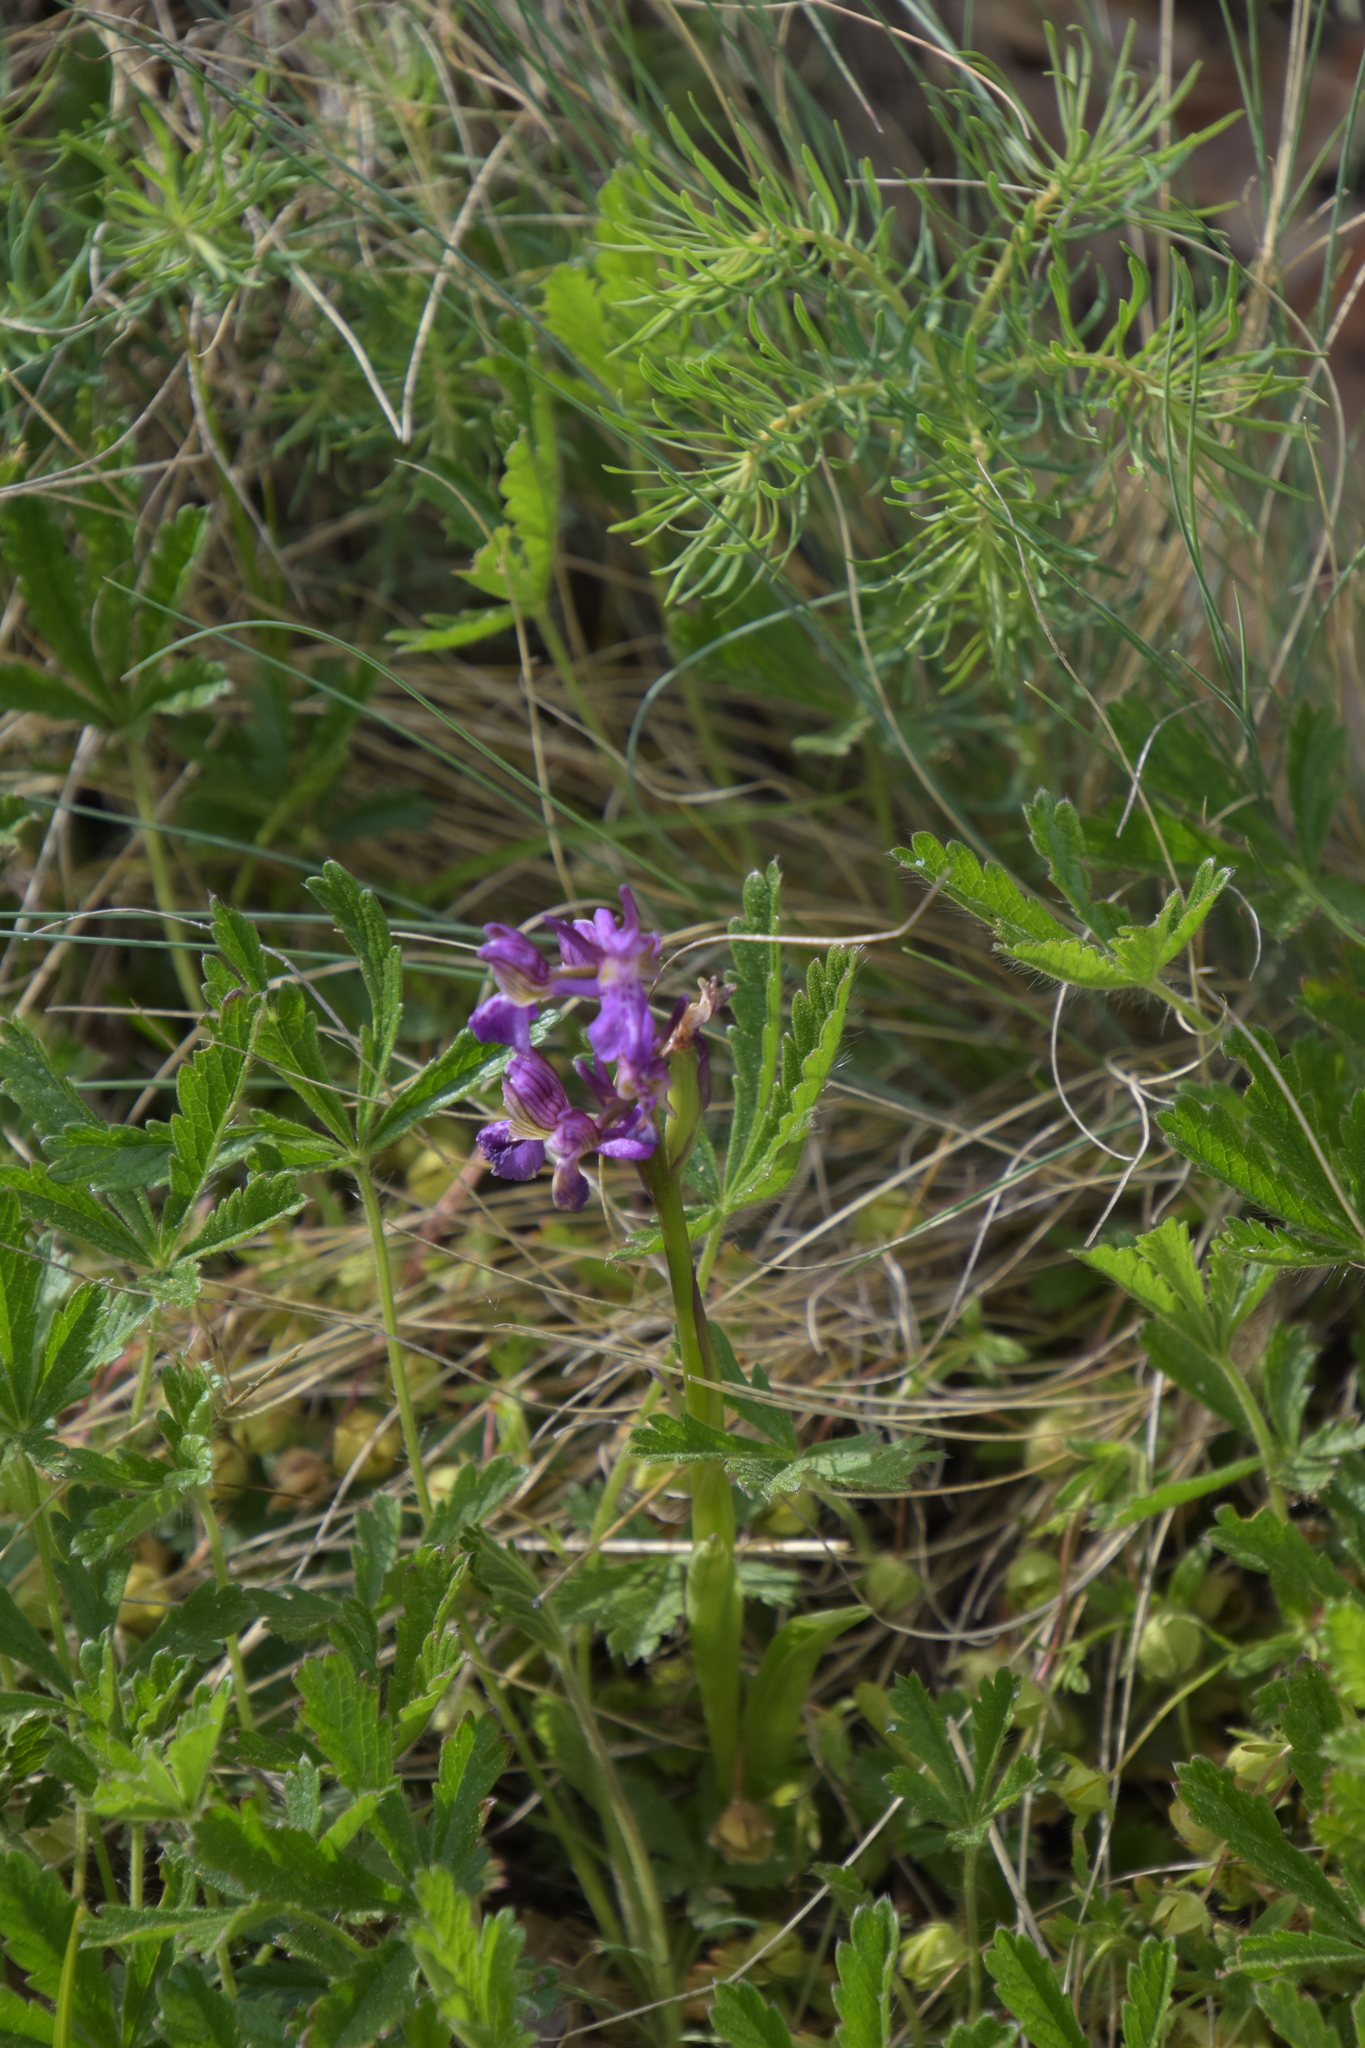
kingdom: Plantae
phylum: Tracheophyta
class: Liliopsida
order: Asparagales
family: Orchidaceae
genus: Anacamptis
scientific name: Anacamptis morio
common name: Green-winged orchid
